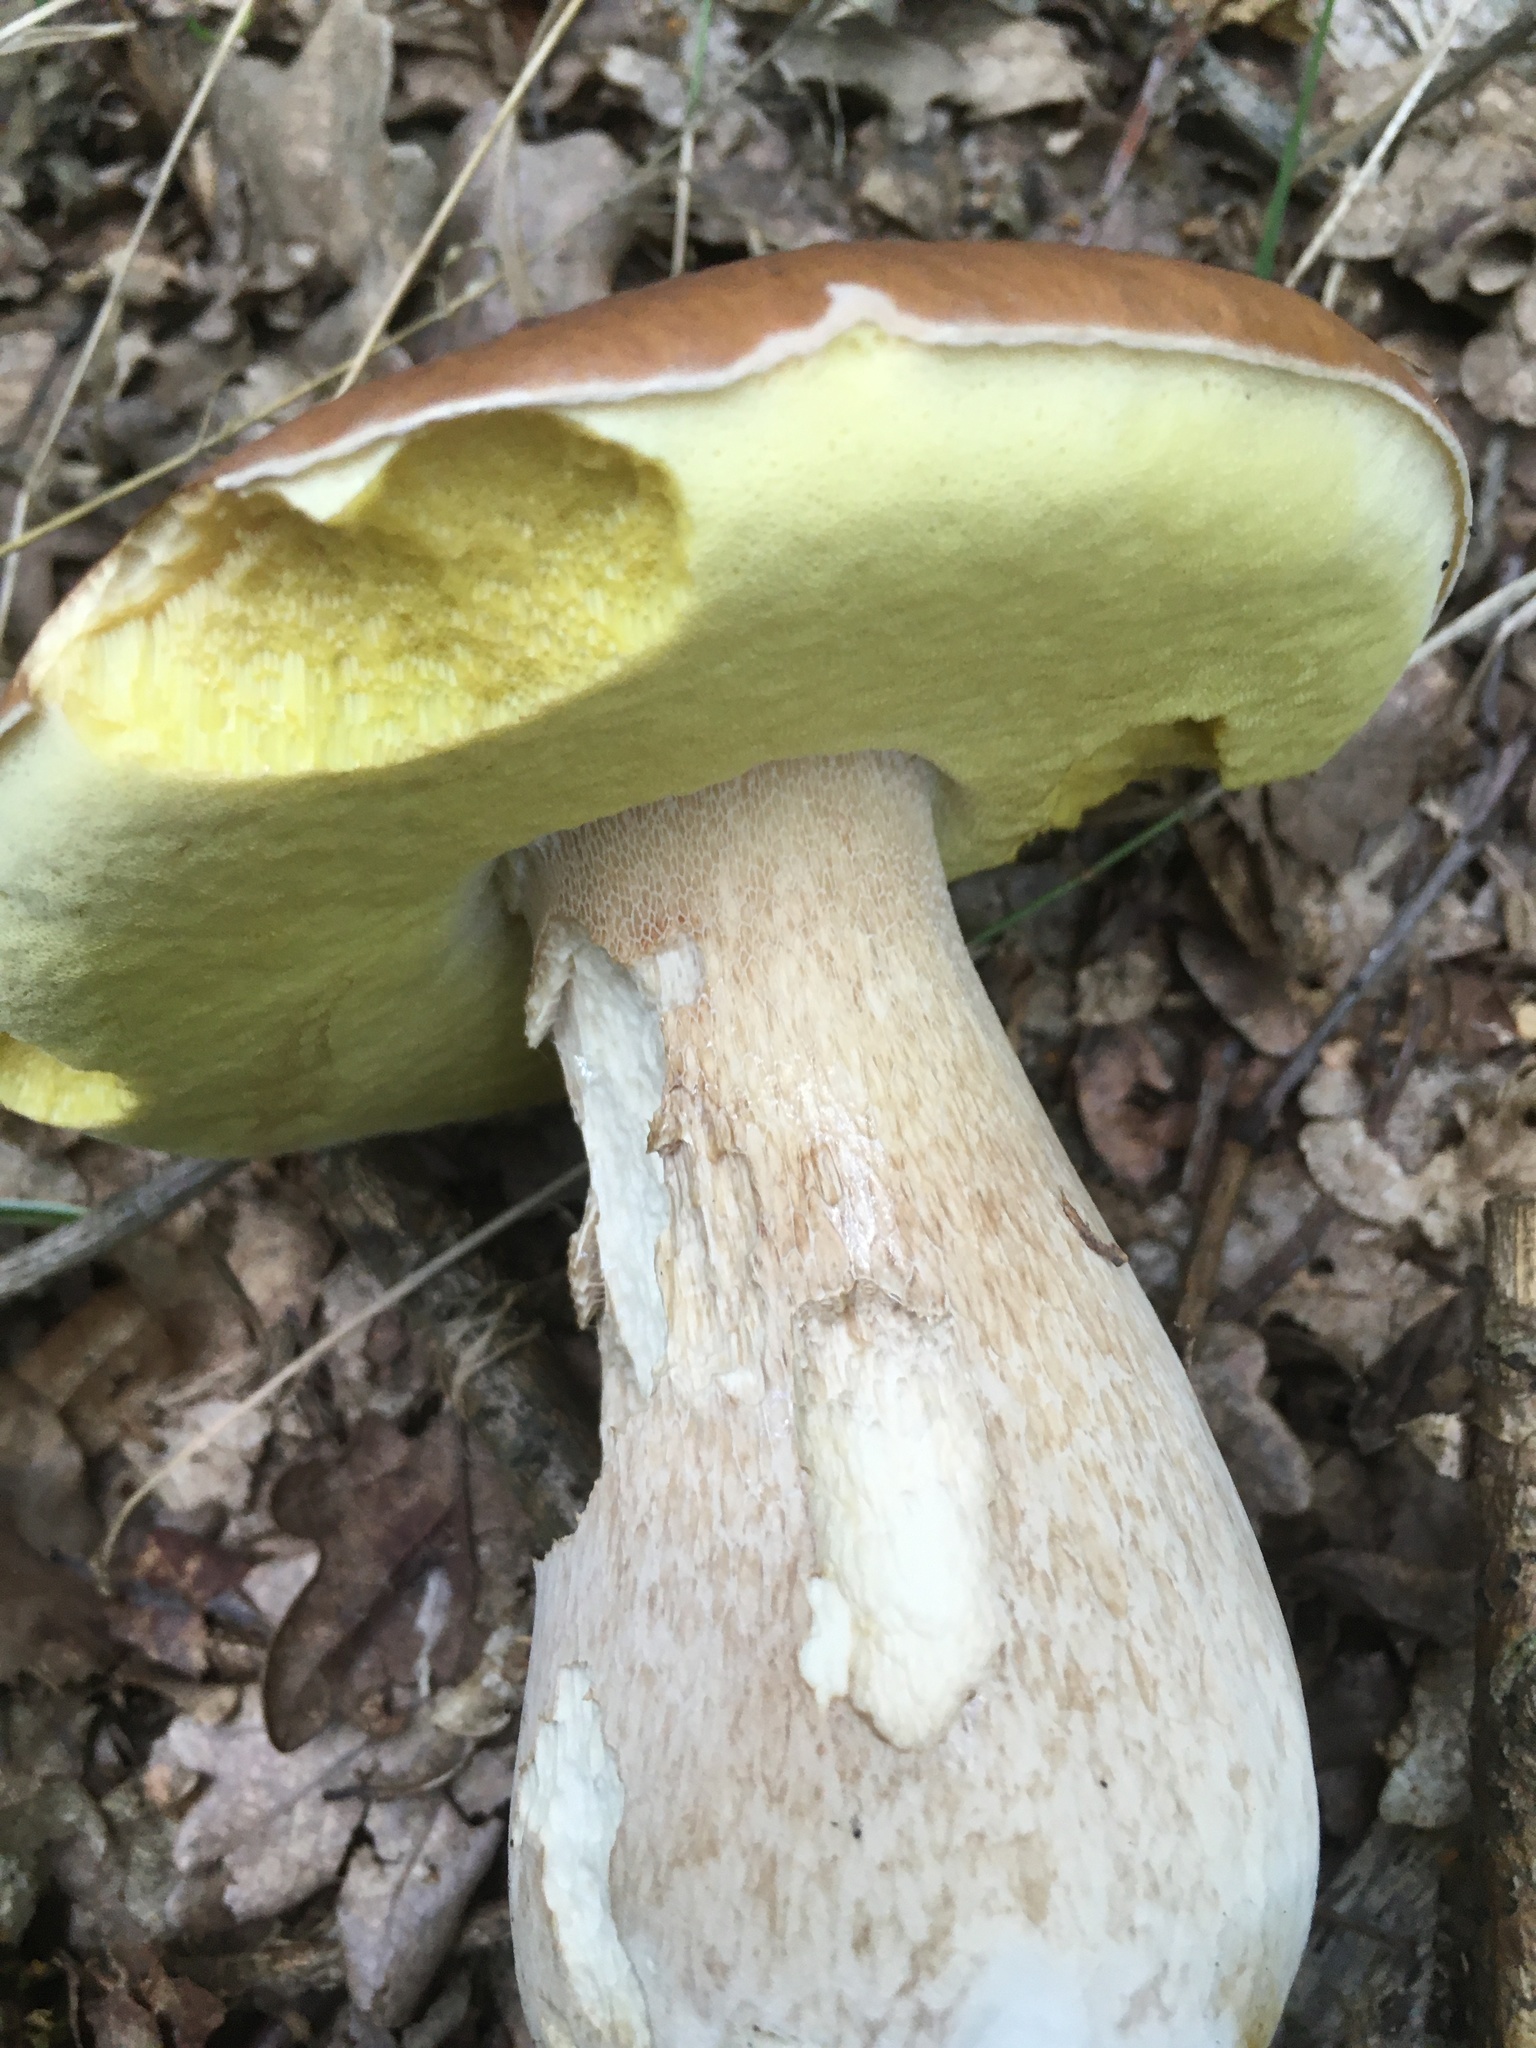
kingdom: Fungi
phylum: Basidiomycota
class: Agaricomycetes
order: Boletales
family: Boletaceae
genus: Boletus
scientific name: Boletus edulis
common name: Cep
